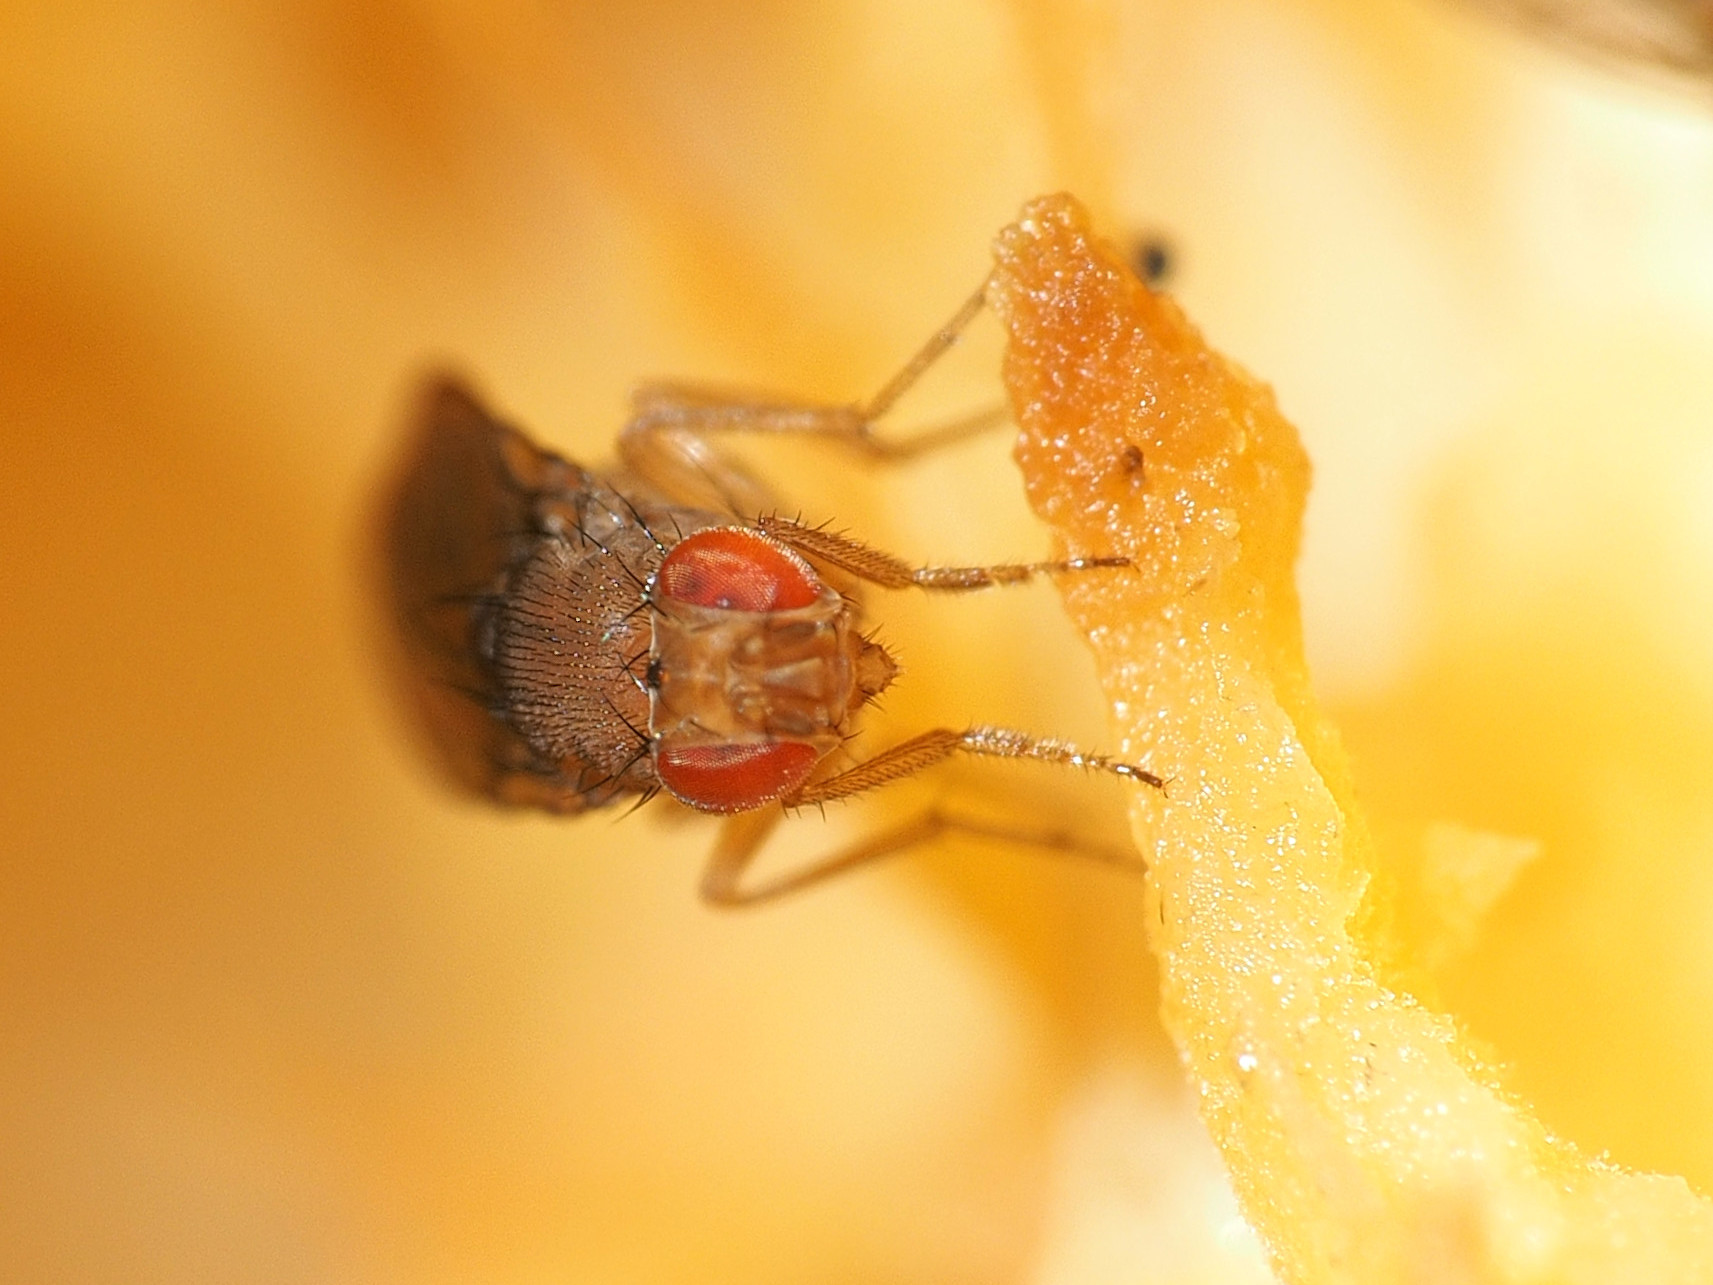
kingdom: Animalia
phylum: Arthropoda
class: Insecta
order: Diptera
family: Drosophilidae
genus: Drosophila
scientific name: Drosophila immigrans
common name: Pomace fly
